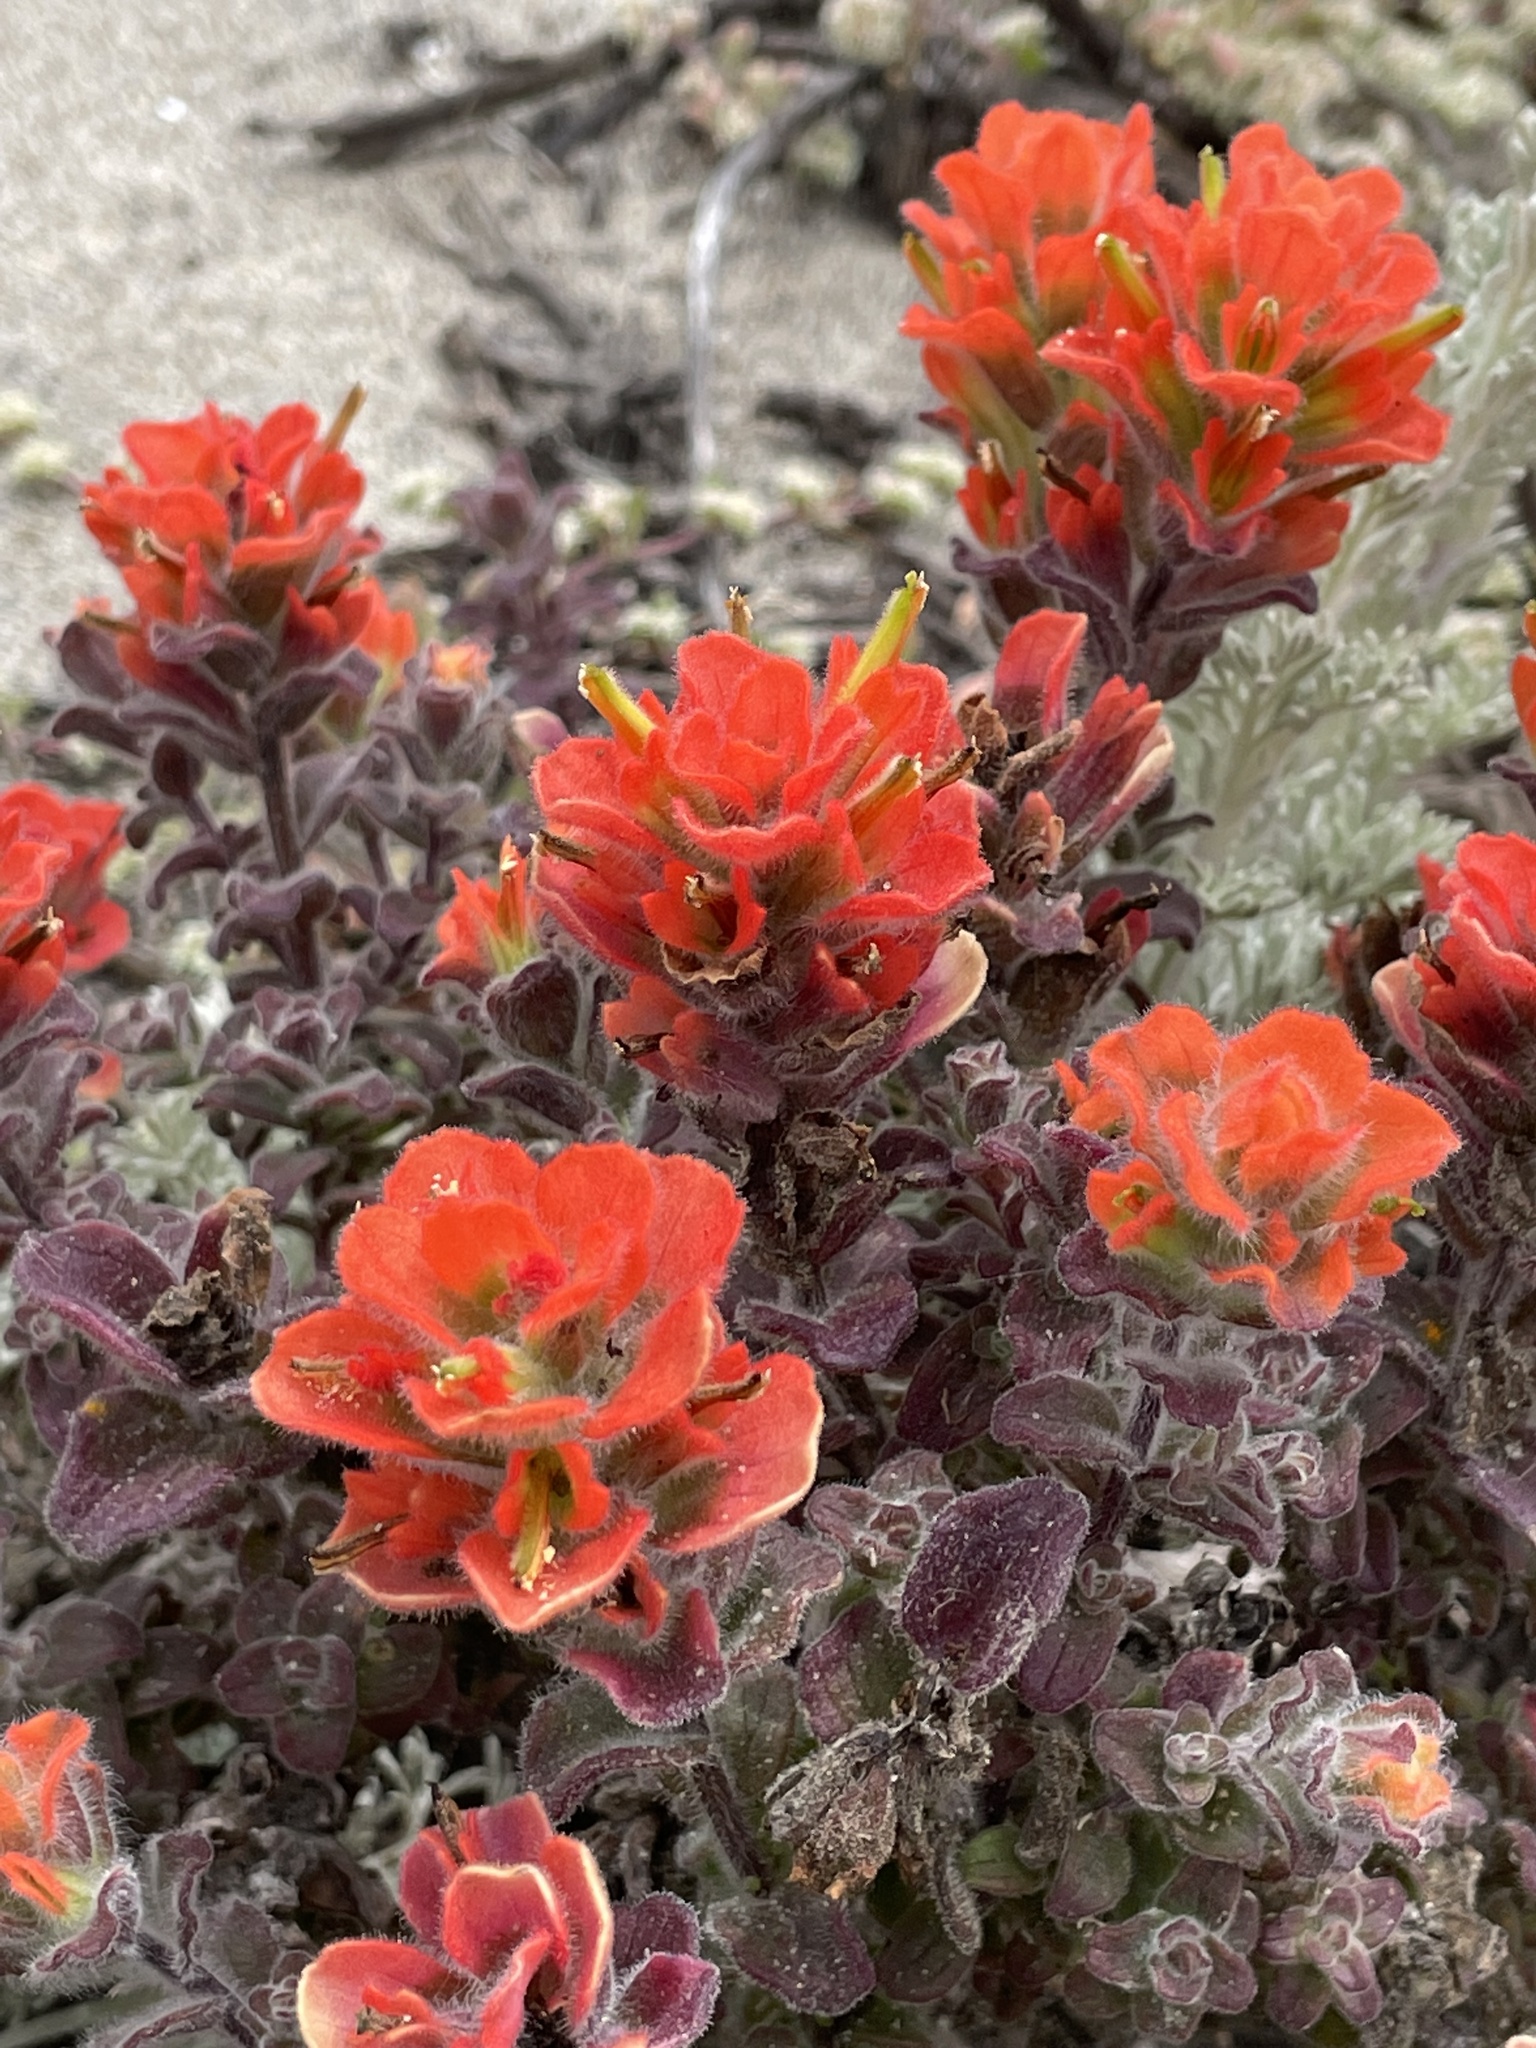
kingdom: Plantae
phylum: Tracheophyta
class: Magnoliopsida
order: Lamiales
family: Orobanchaceae
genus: Castilleja
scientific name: Castilleja latifolia
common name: Monterey indian paintbrush
